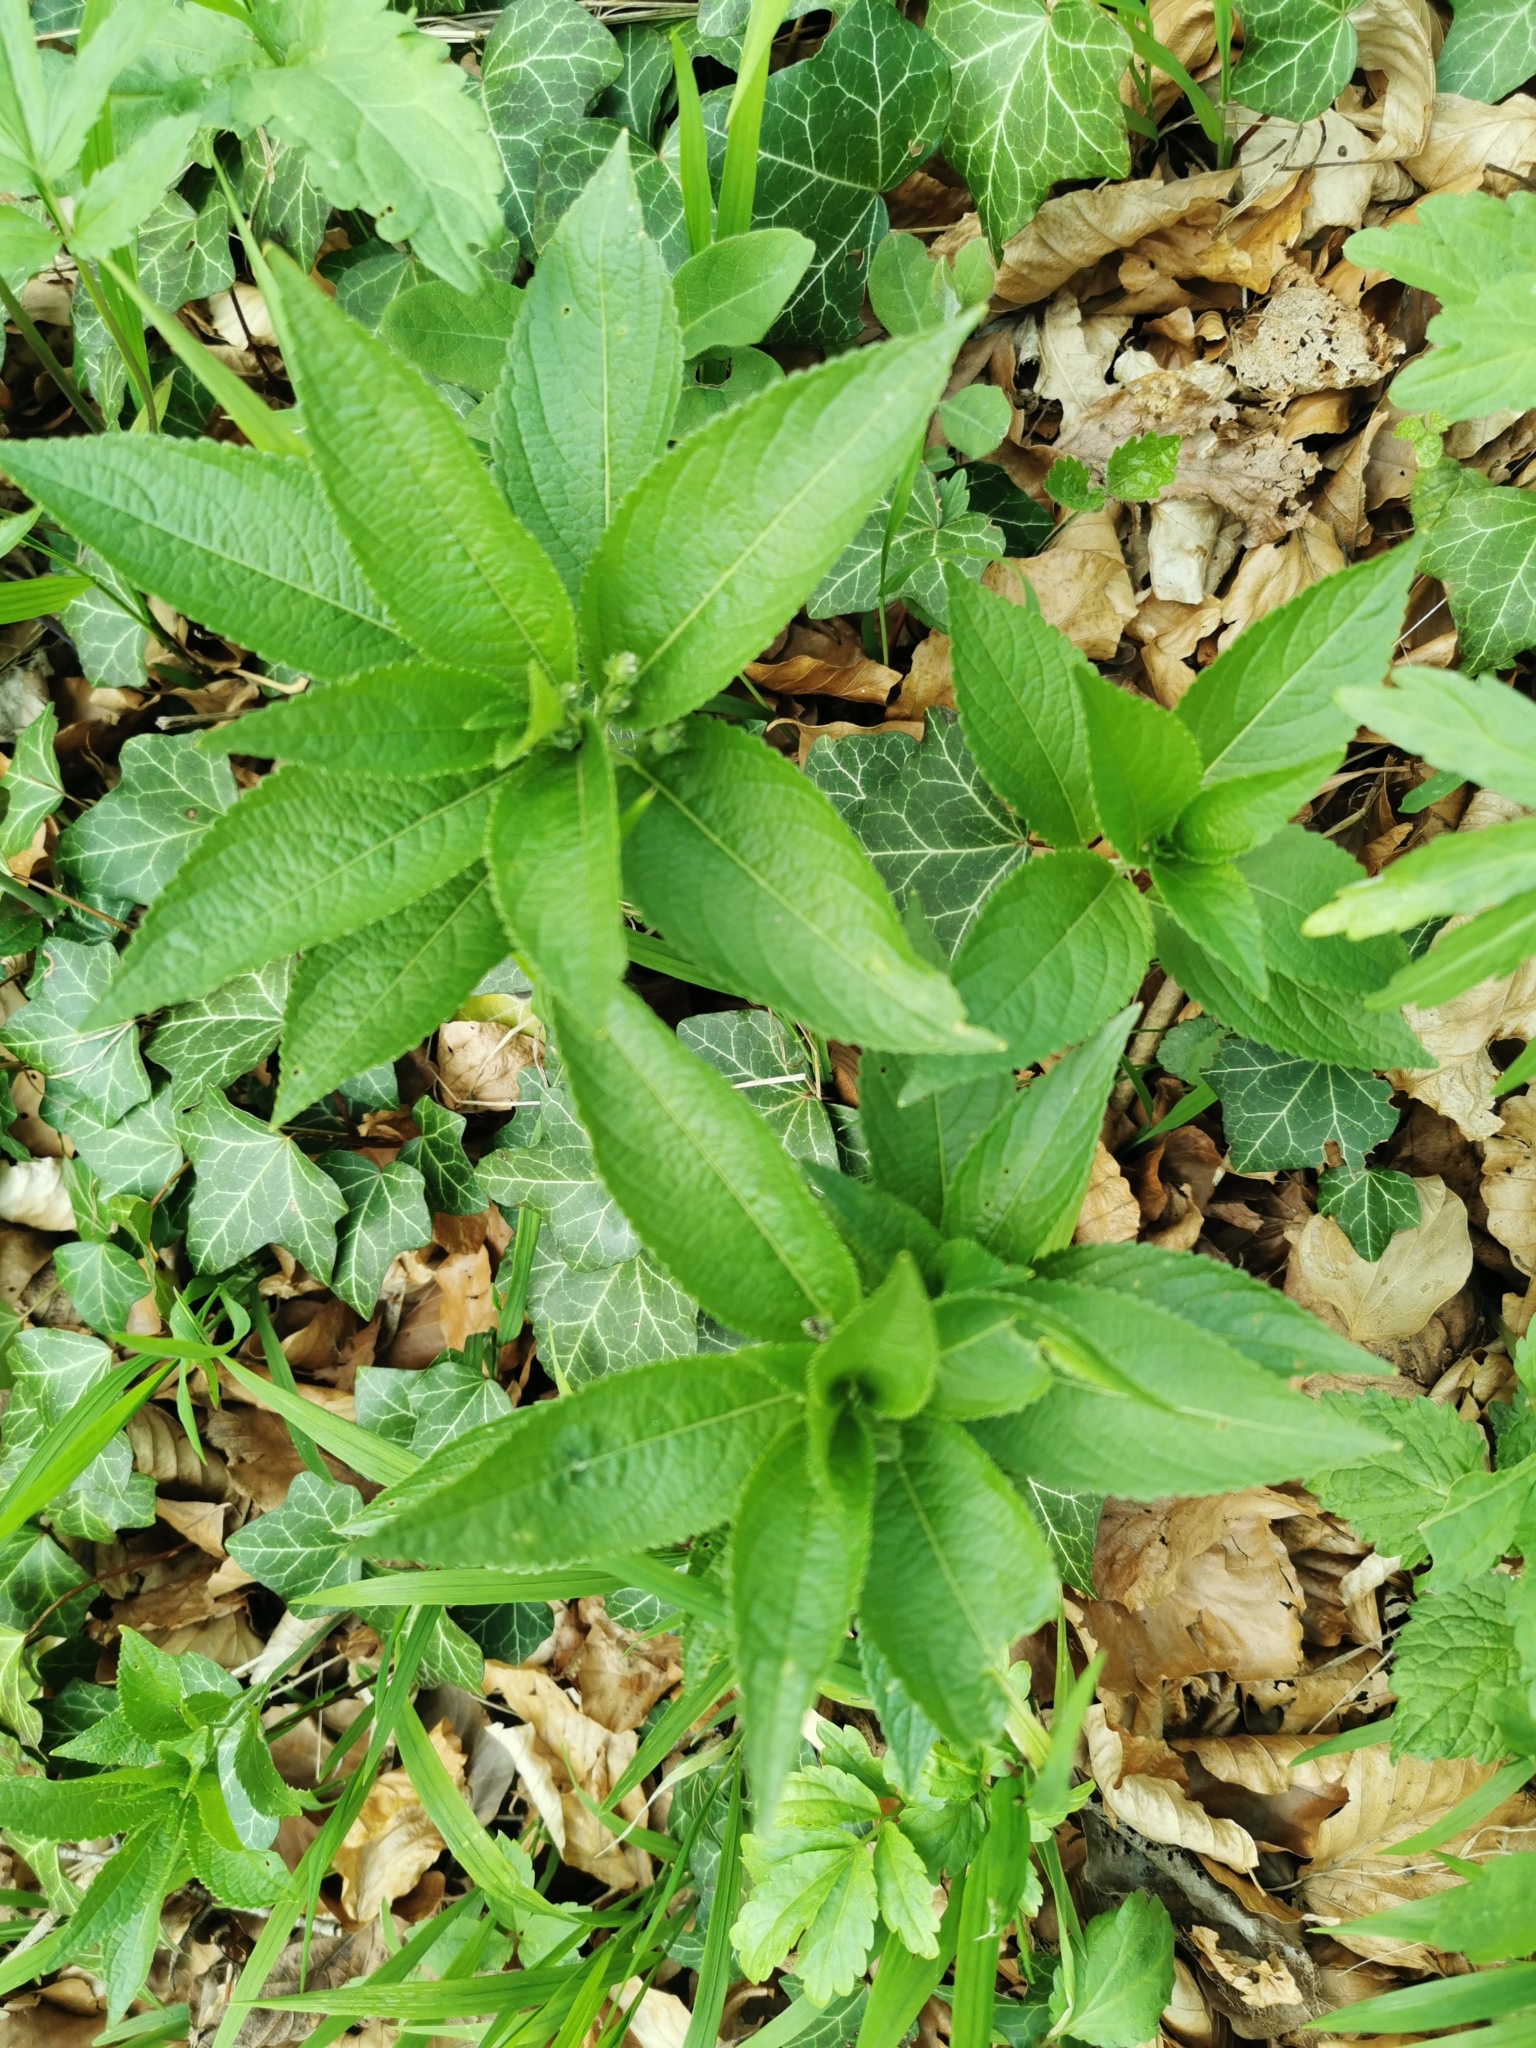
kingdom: Plantae
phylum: Tracheophyta
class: Magnoliopsida
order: Malpighiales
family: Euphorbiaceae
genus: Mercurialis
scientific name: Mercurialis perennis
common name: Dog mercury
